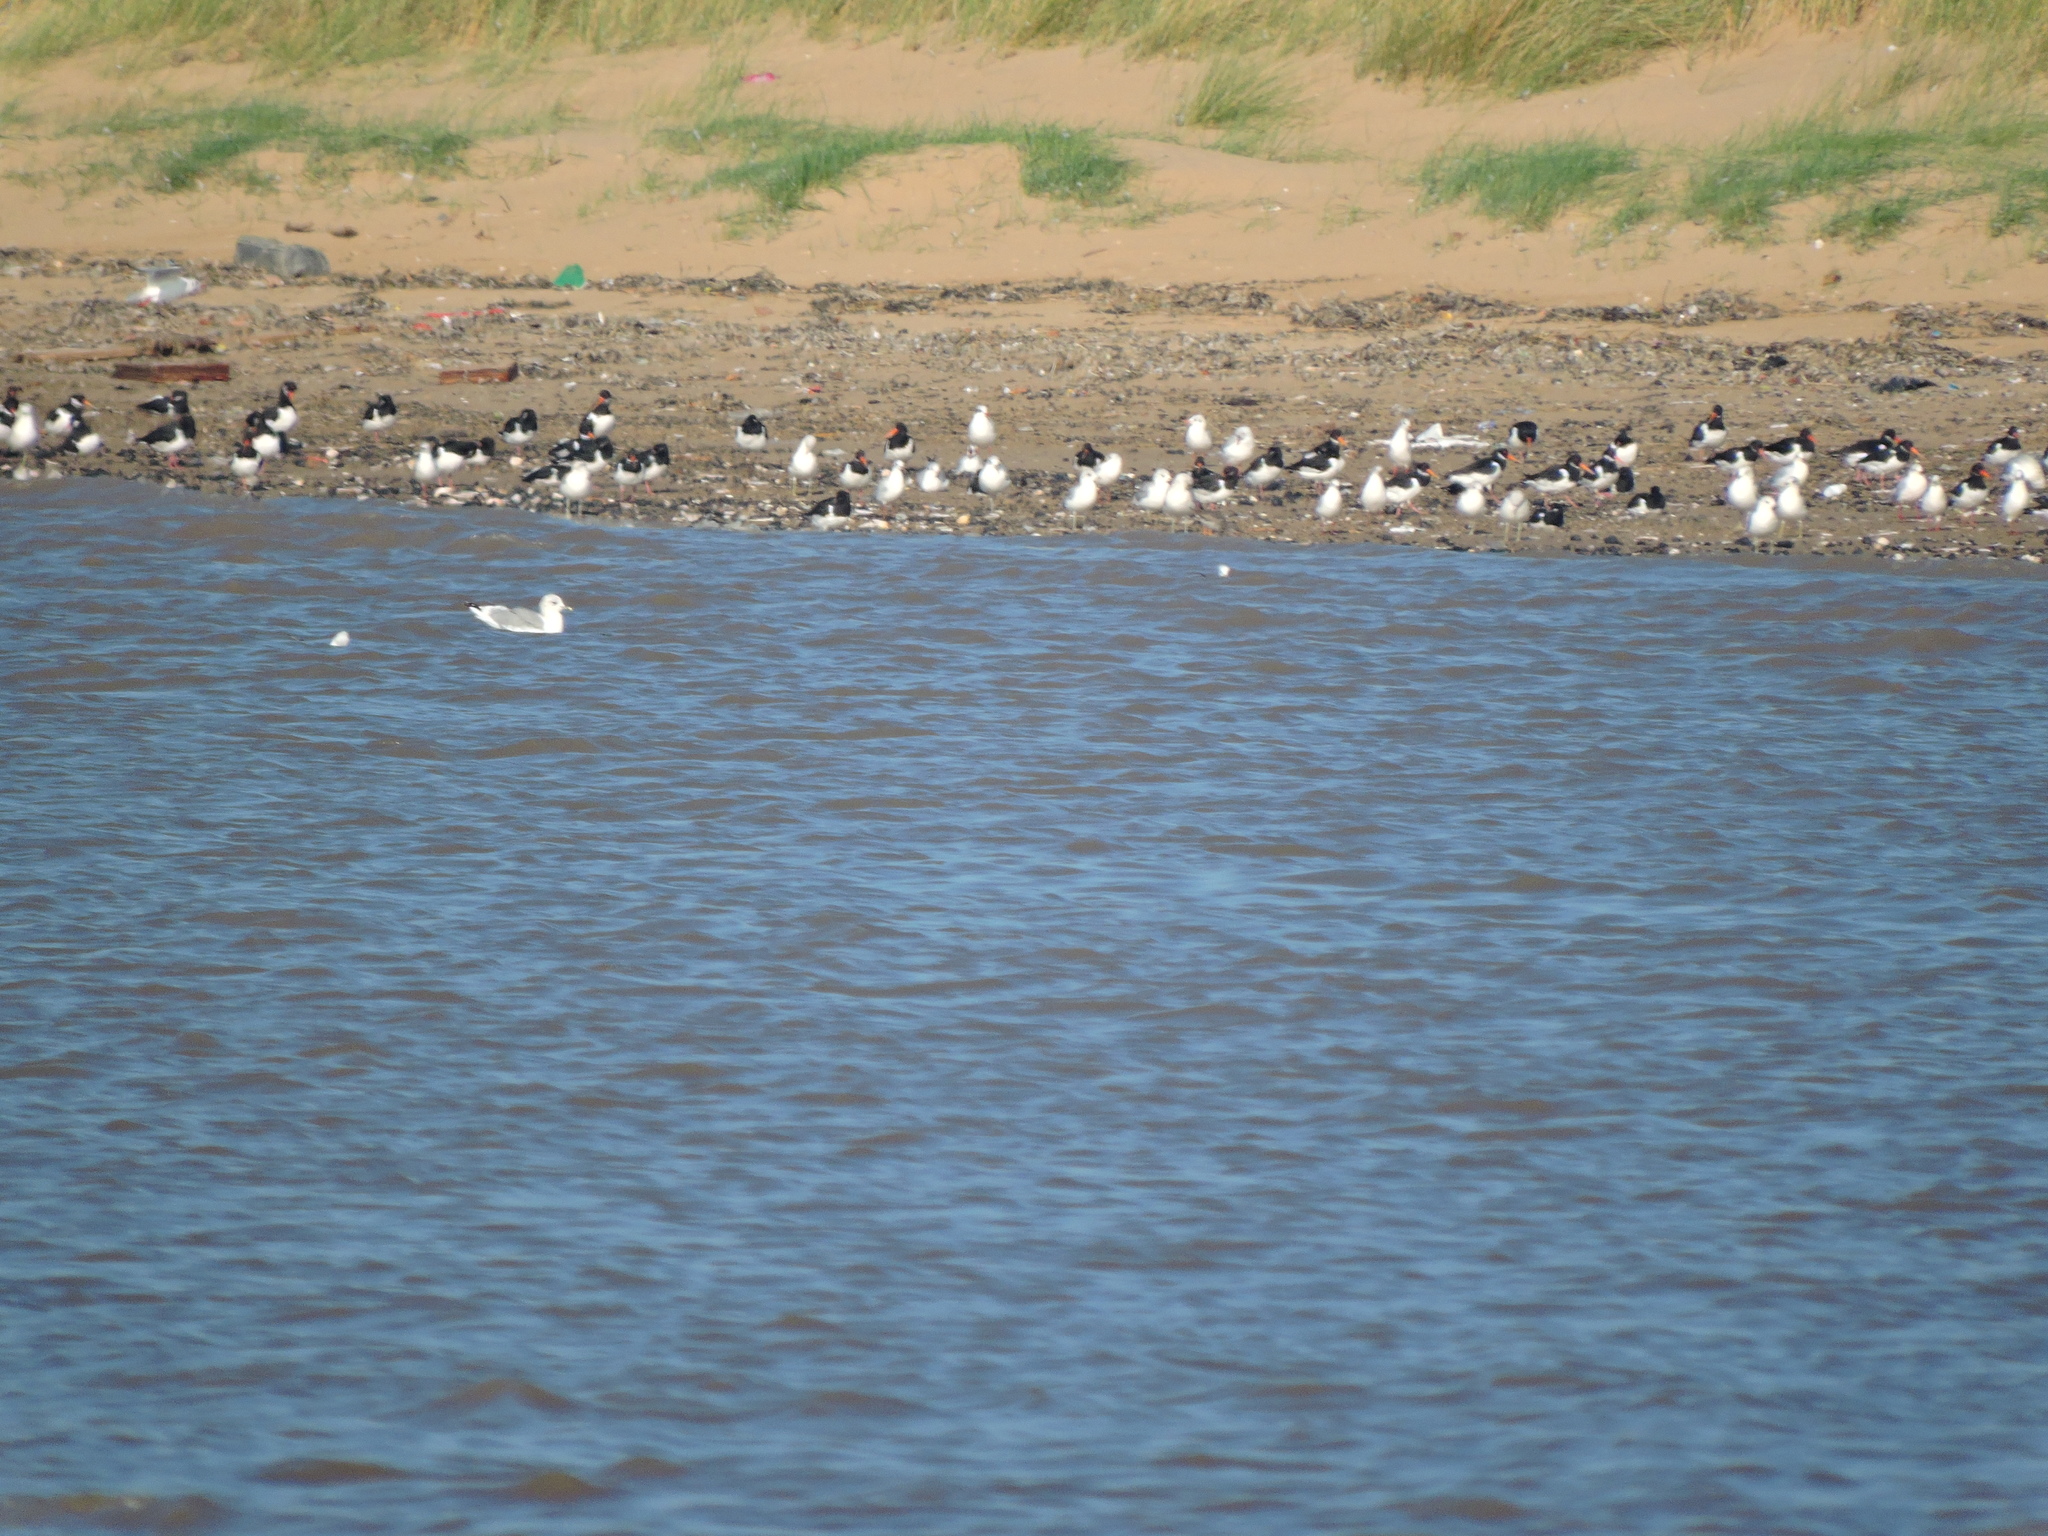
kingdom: Animalia
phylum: Chordata
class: Aves
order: Charadriiformes
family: Haematopodidae
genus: Haematopus
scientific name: Haematopus ostralegus
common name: Eurasian oystercatcher
